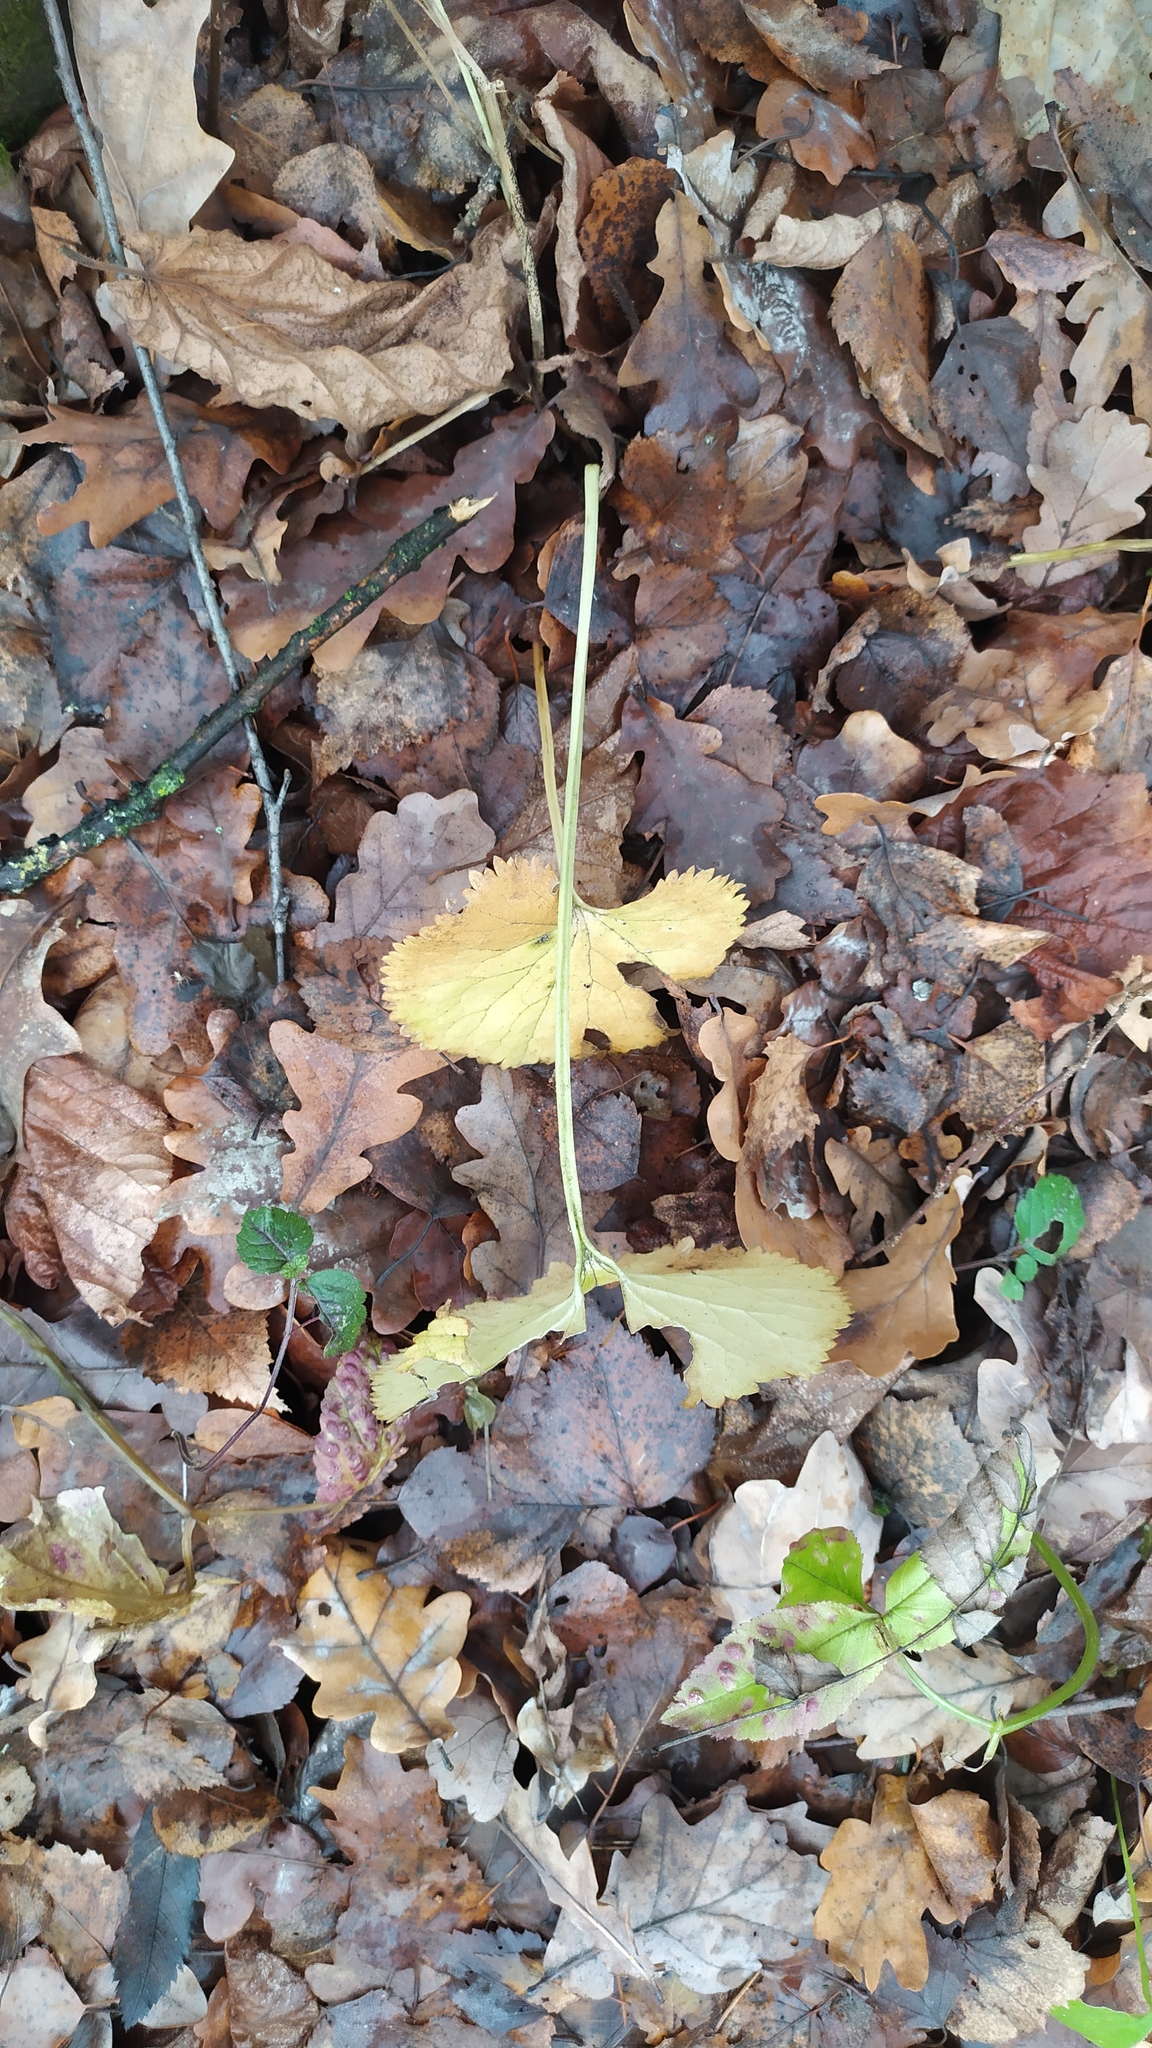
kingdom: Plantae
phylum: Tracheophyta
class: Magnoliopsida
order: Ranunculales
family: Ranunculaceae
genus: Ranunculus
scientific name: Ranunculus cassubicus
